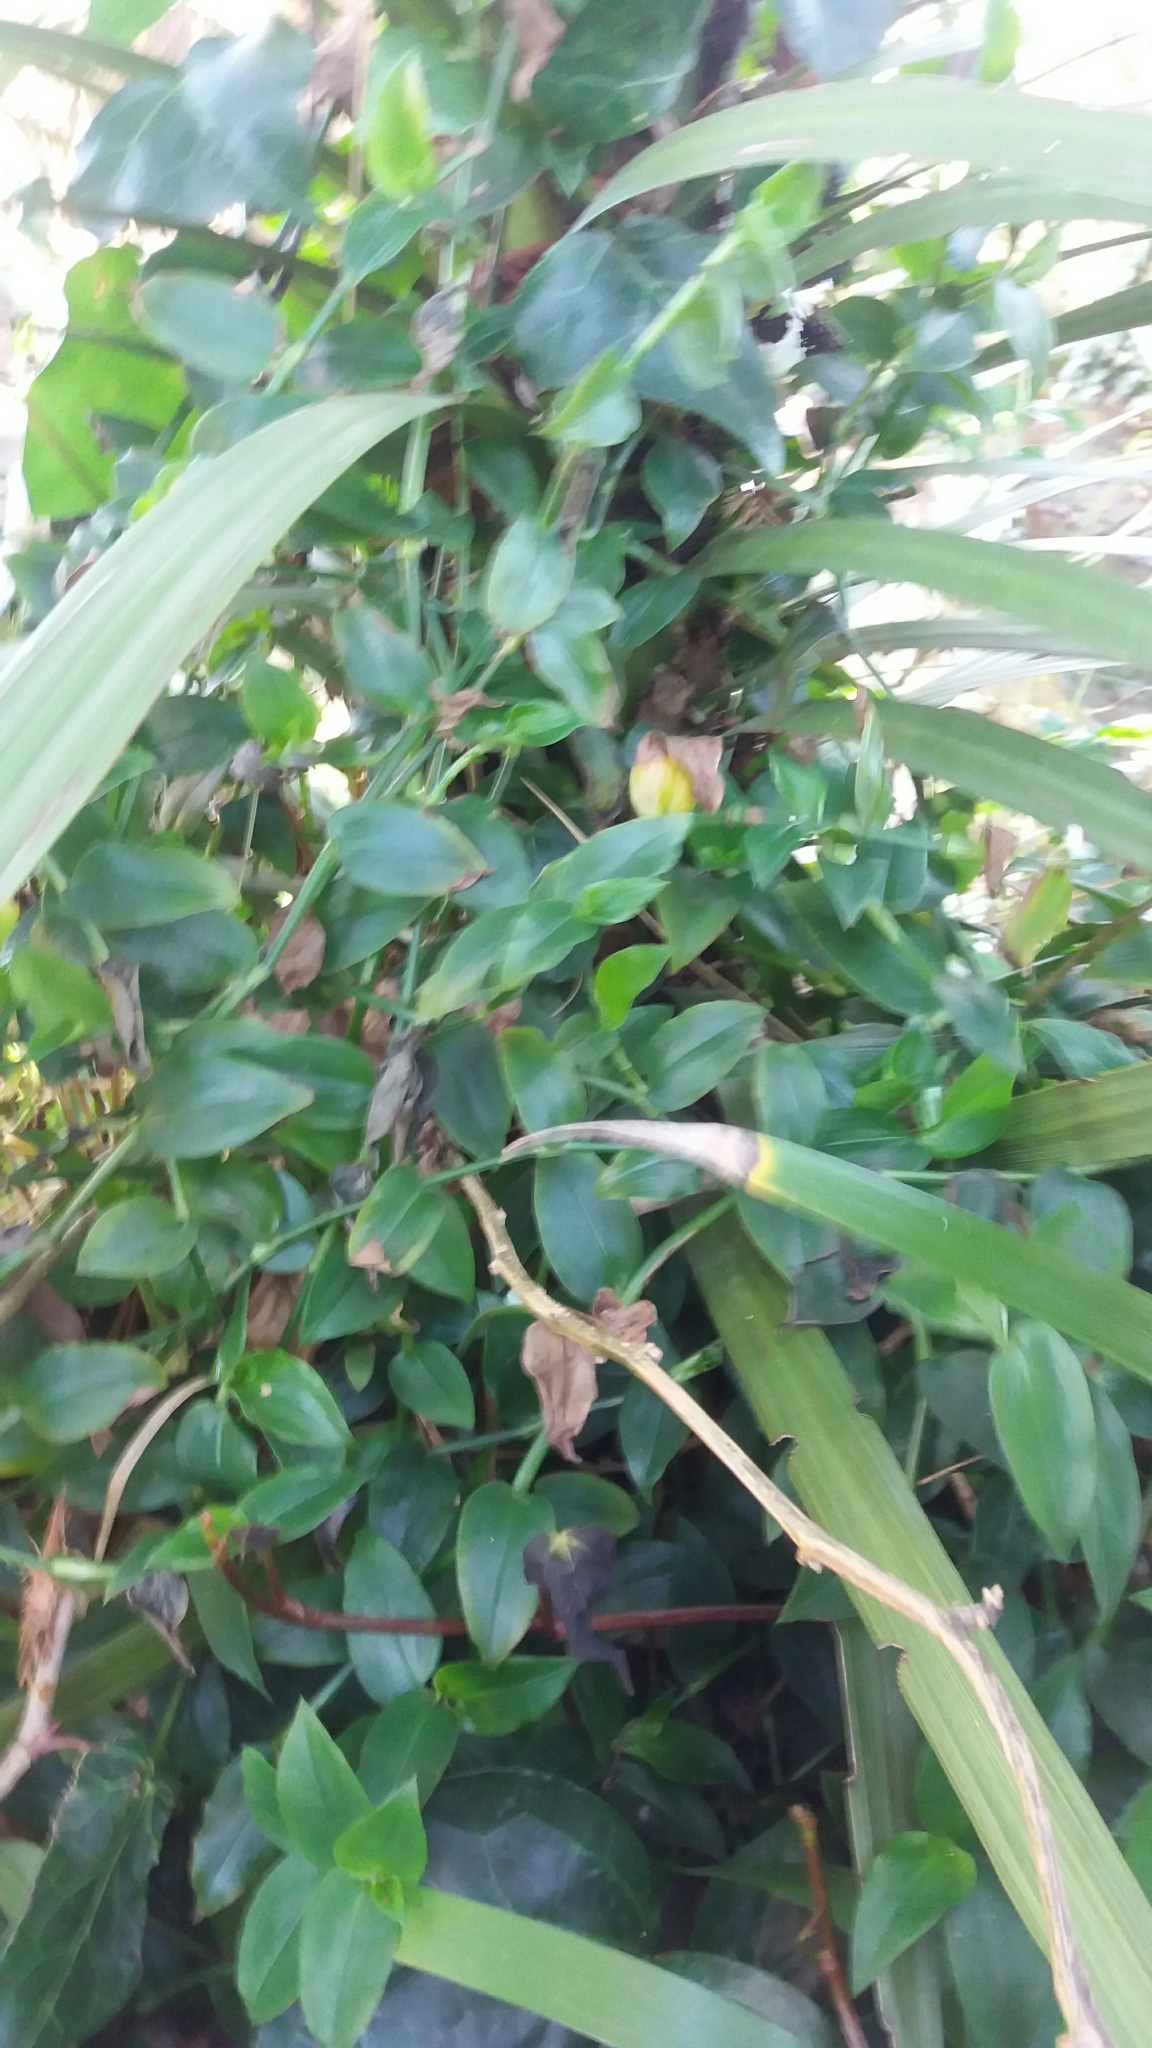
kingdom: Plantae
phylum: Tracheophyta
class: Liliopsida
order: Commelinales
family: Commelinaceae
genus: Tradescantia
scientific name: Tradescantia fluminensis
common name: Wandering-jew
